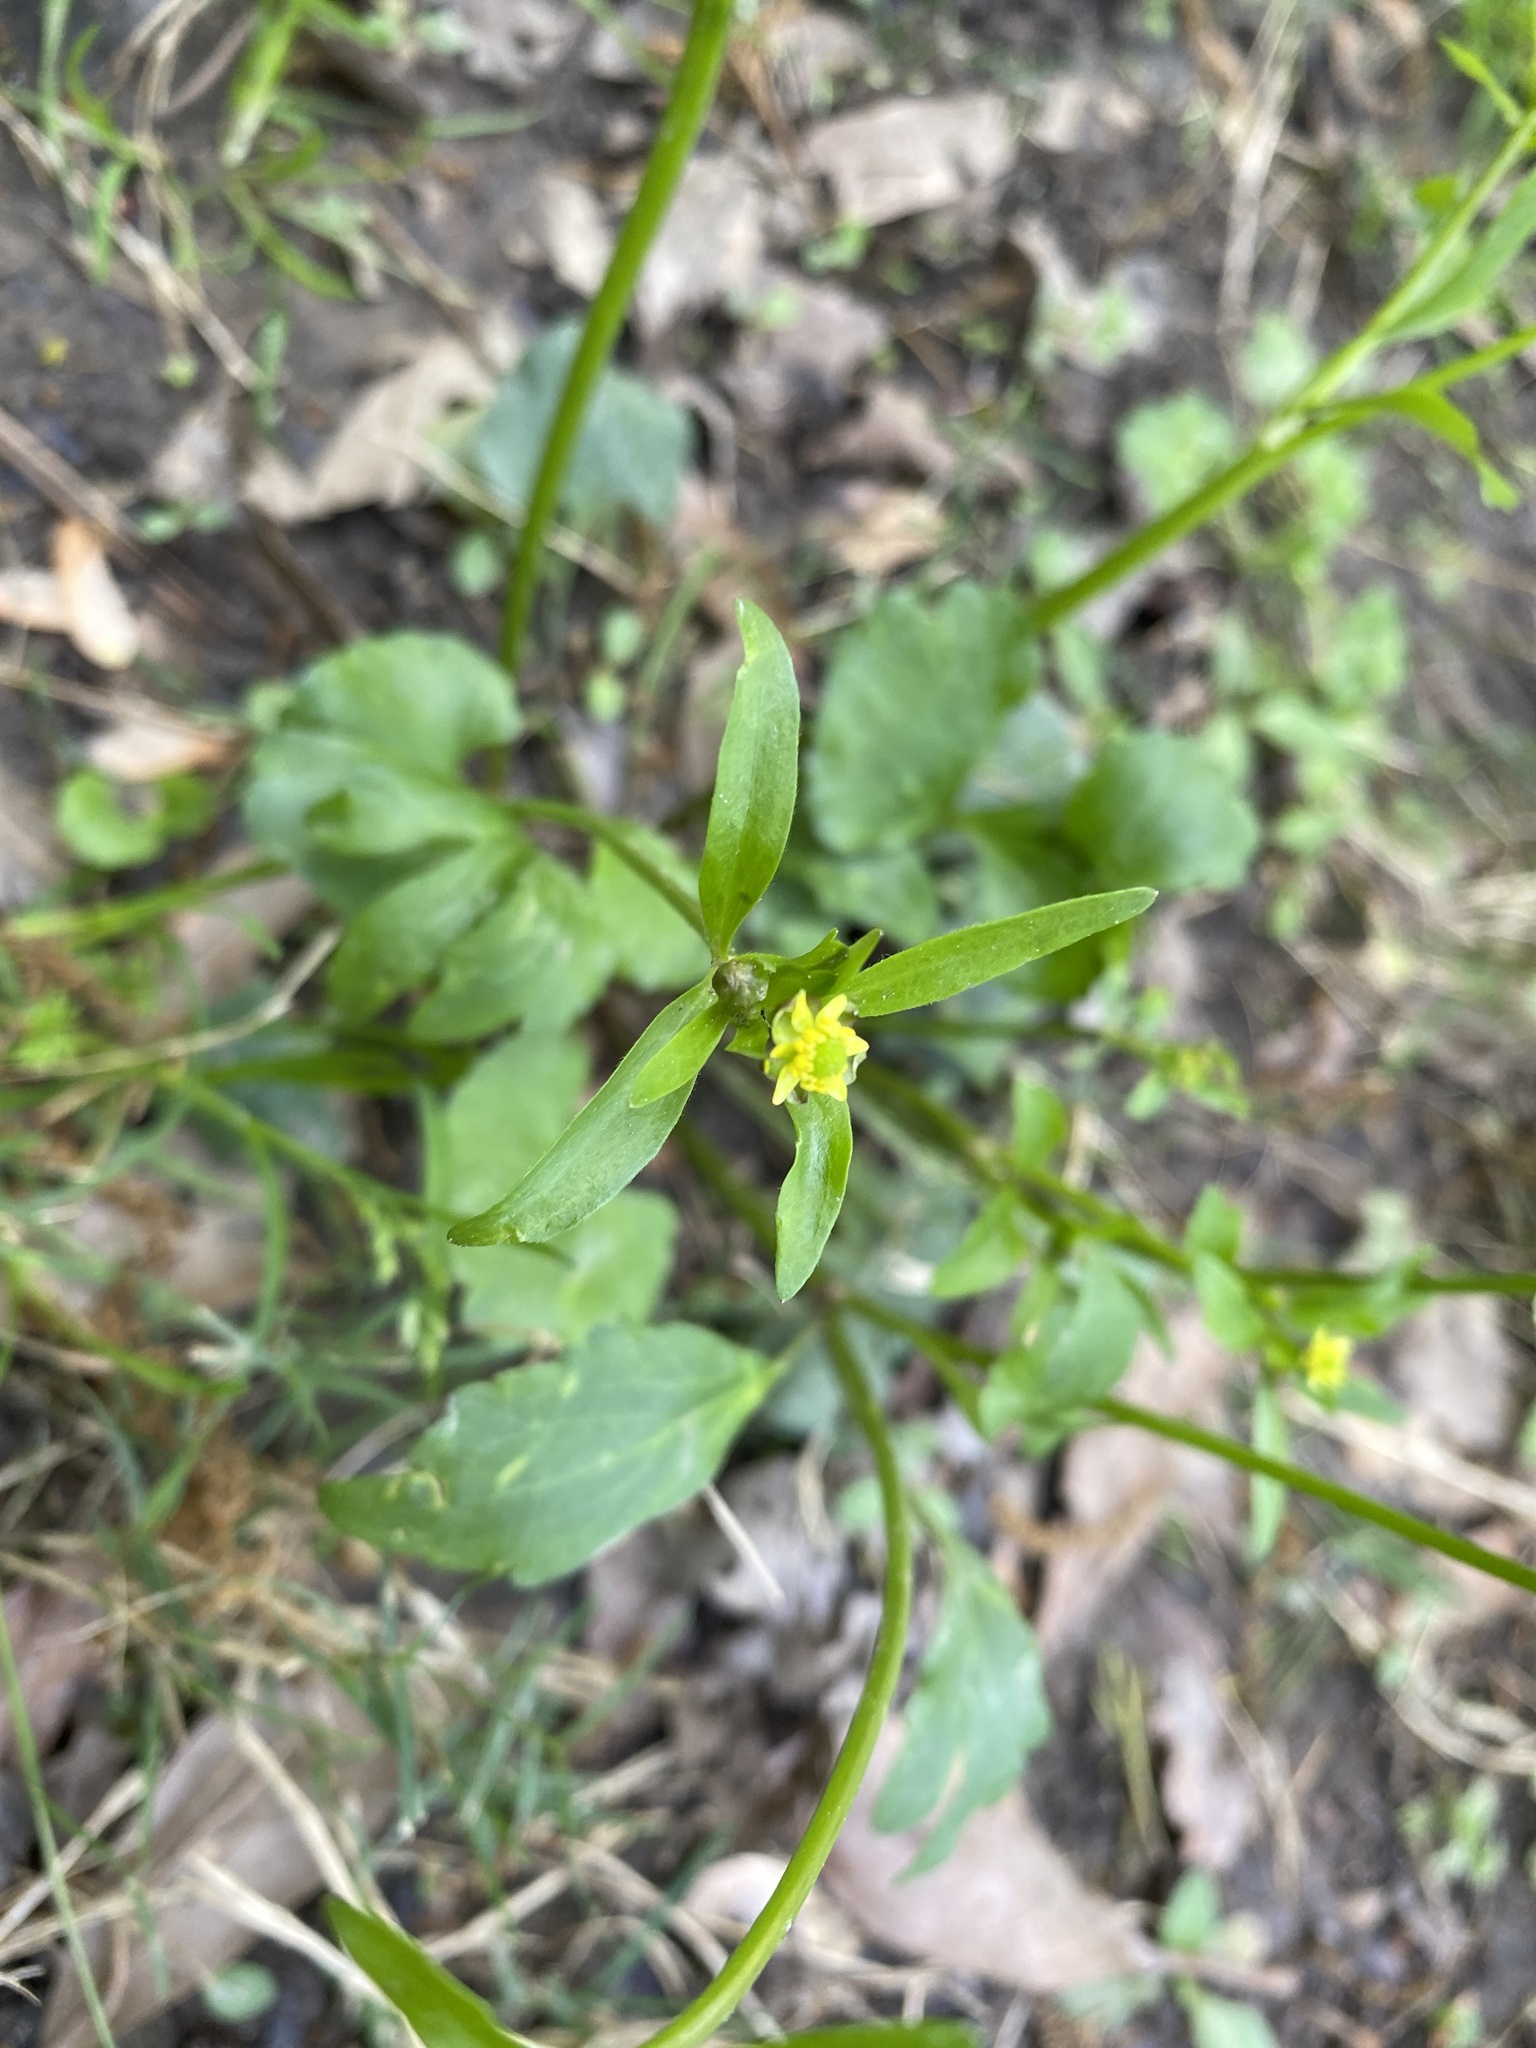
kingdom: Plantae
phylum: Tracheophyta
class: Magnoliopsida
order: Ranunculales
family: Ranunculaceae
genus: Ranunculus
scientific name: Ranunculus abortivus
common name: Early wood buttercup
